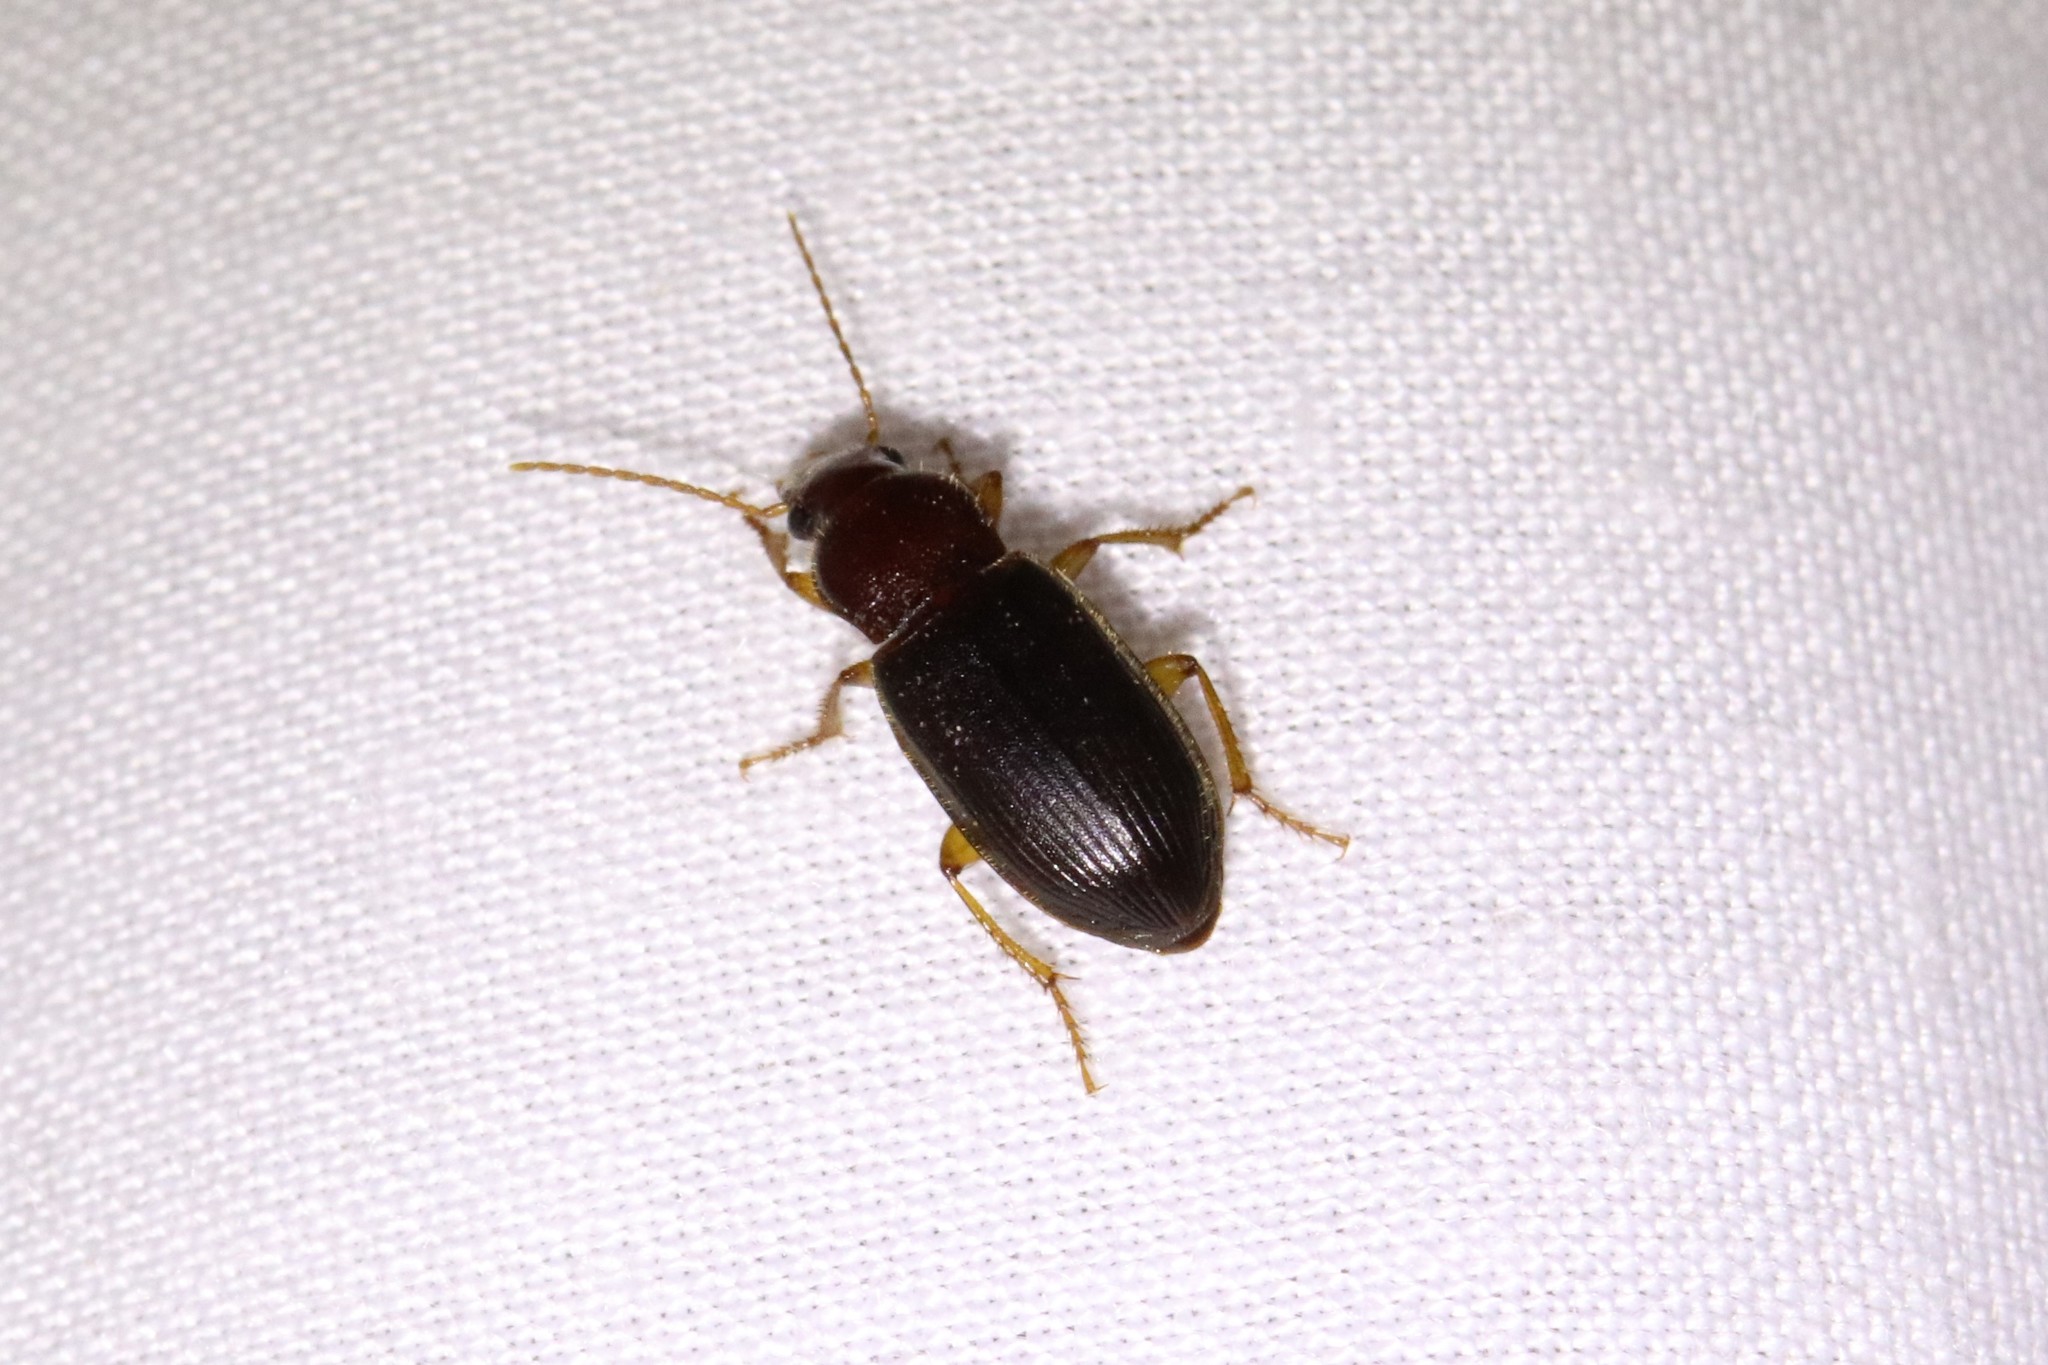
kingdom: Animalia
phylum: Arthropoda
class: Insecta
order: Coleoptera
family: Carabidae
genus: Ophonus
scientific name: Ophonus puncticeps
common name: Puncture-headed harp ground beetle
